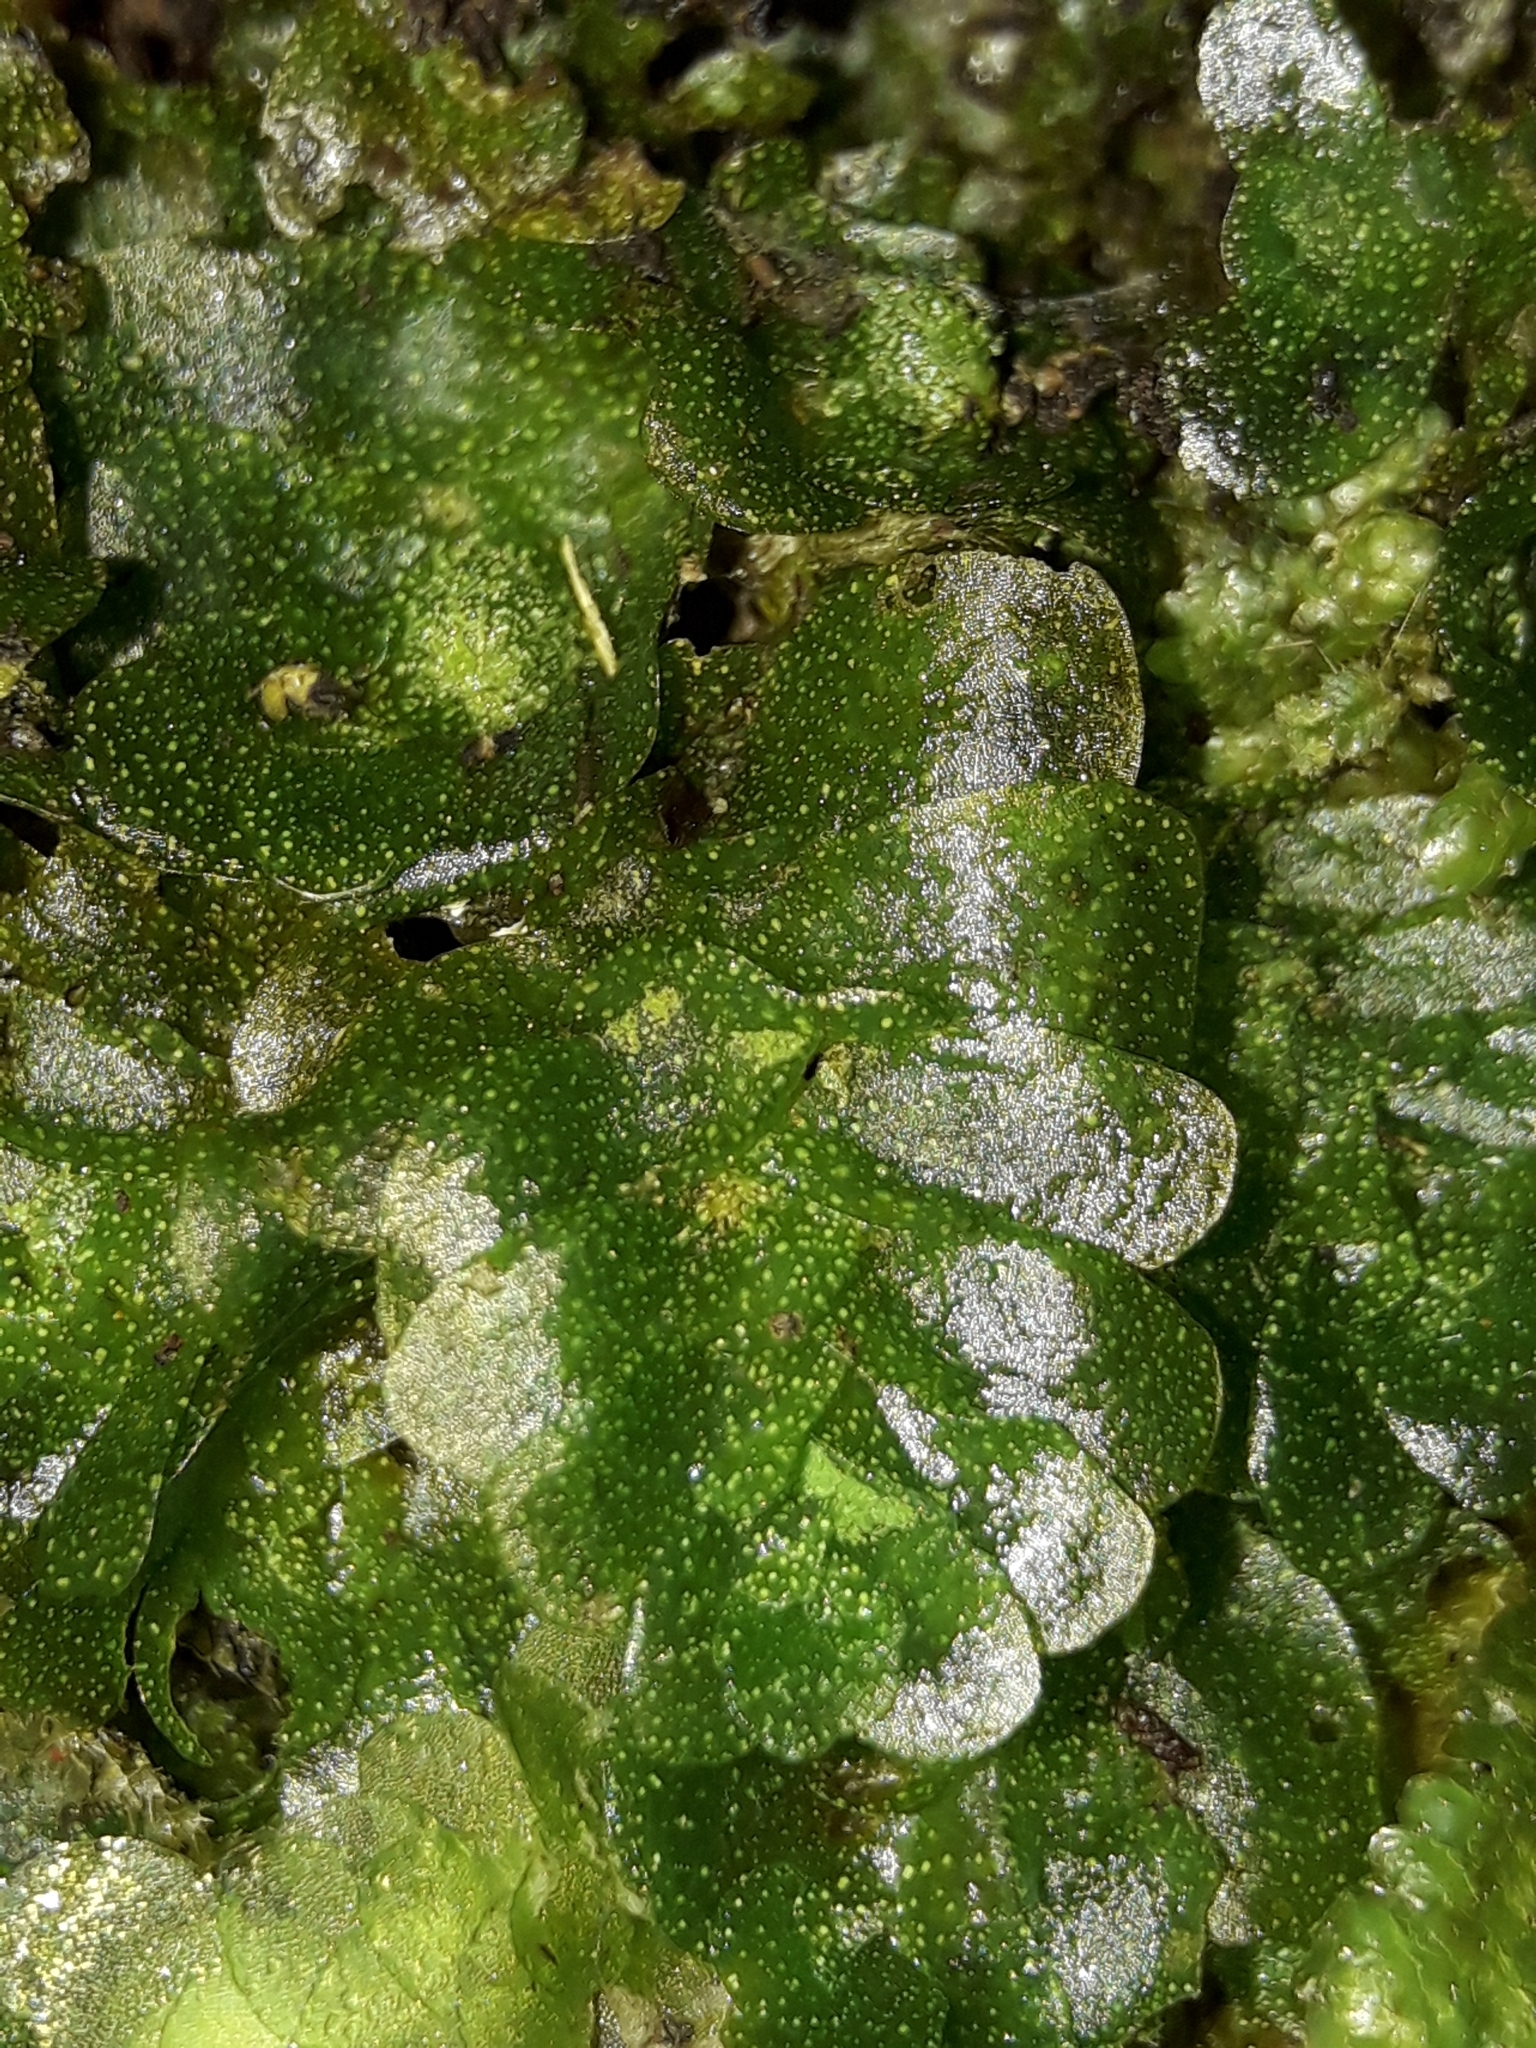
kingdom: Plantae
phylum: Marchantiophyta
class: Haplomitriopsida
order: Treubiales
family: Treubiaceae
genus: Treubia
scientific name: Treubia lacunosa
